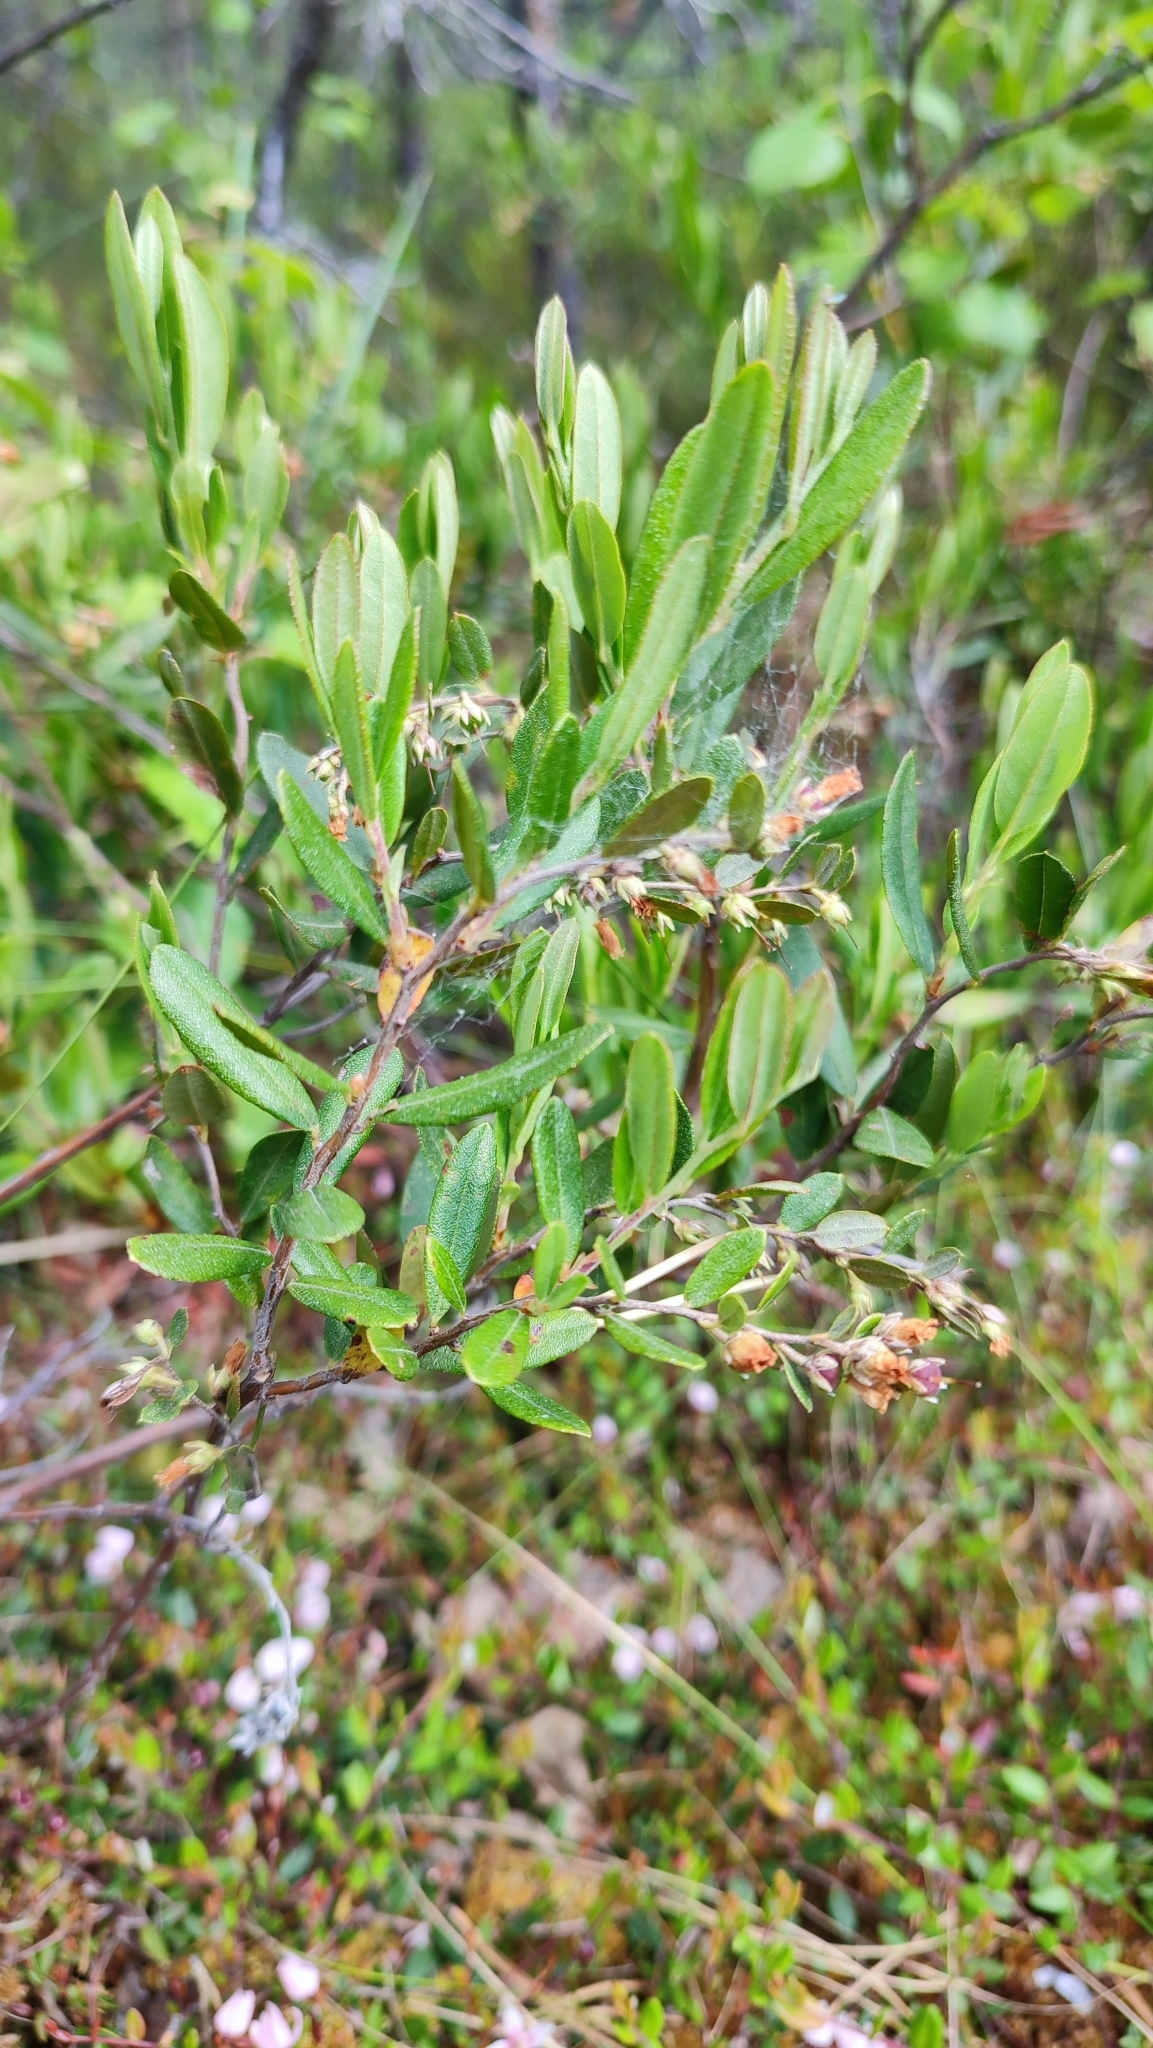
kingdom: Plantae
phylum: Tracheophyta
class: Magnoliopsida
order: Ericales
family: Ericaceae
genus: Chamaedaphne
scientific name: Chamaedaphne calyculata
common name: Leatherleaf
